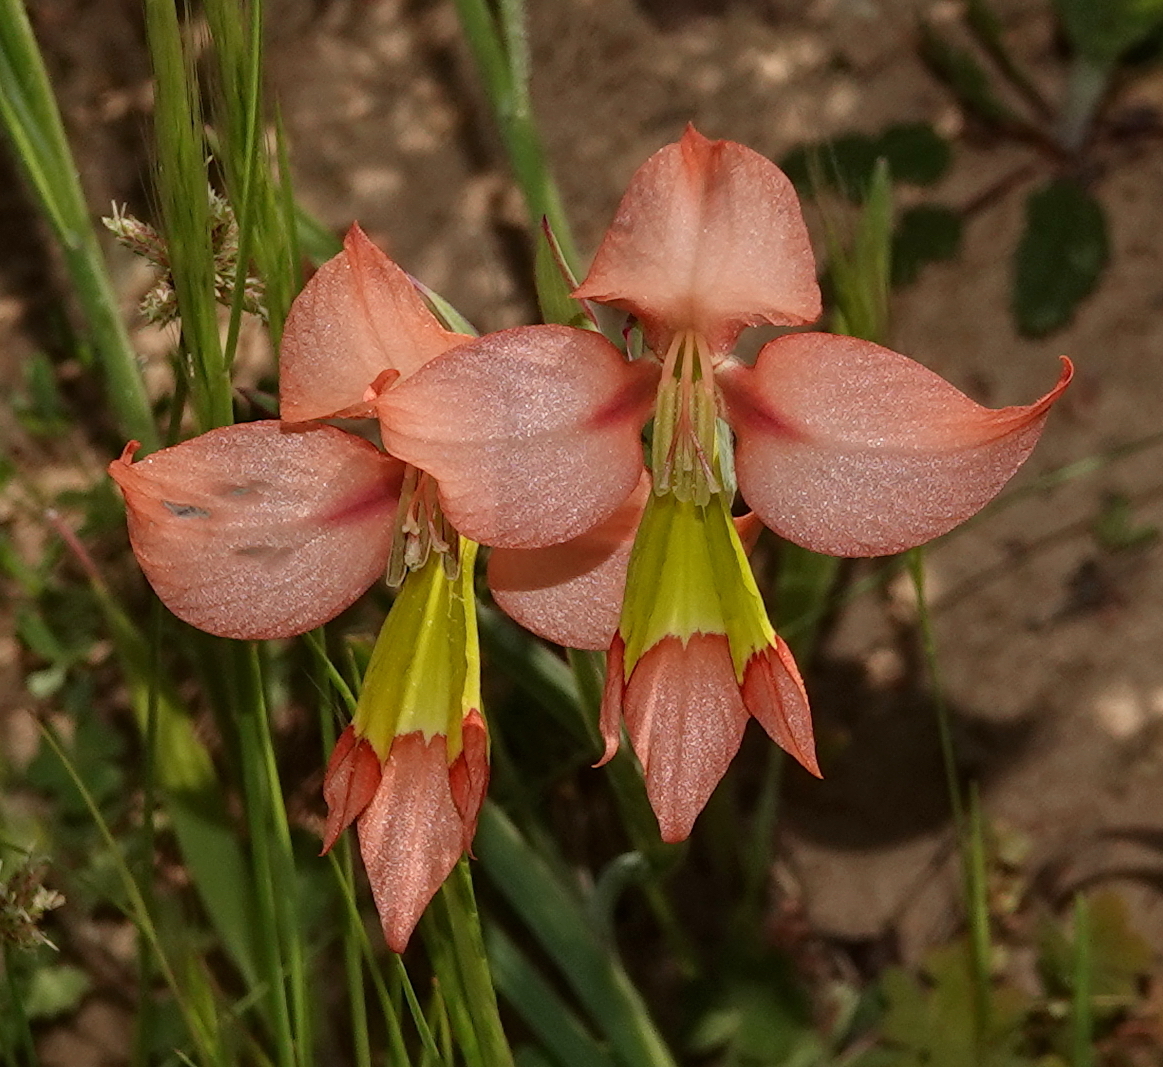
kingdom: Plantae
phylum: Tracheophyta
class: Liliopsida
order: Asparagales
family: Iridaceae
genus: Gladiolus
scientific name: Gladiolus alatus
